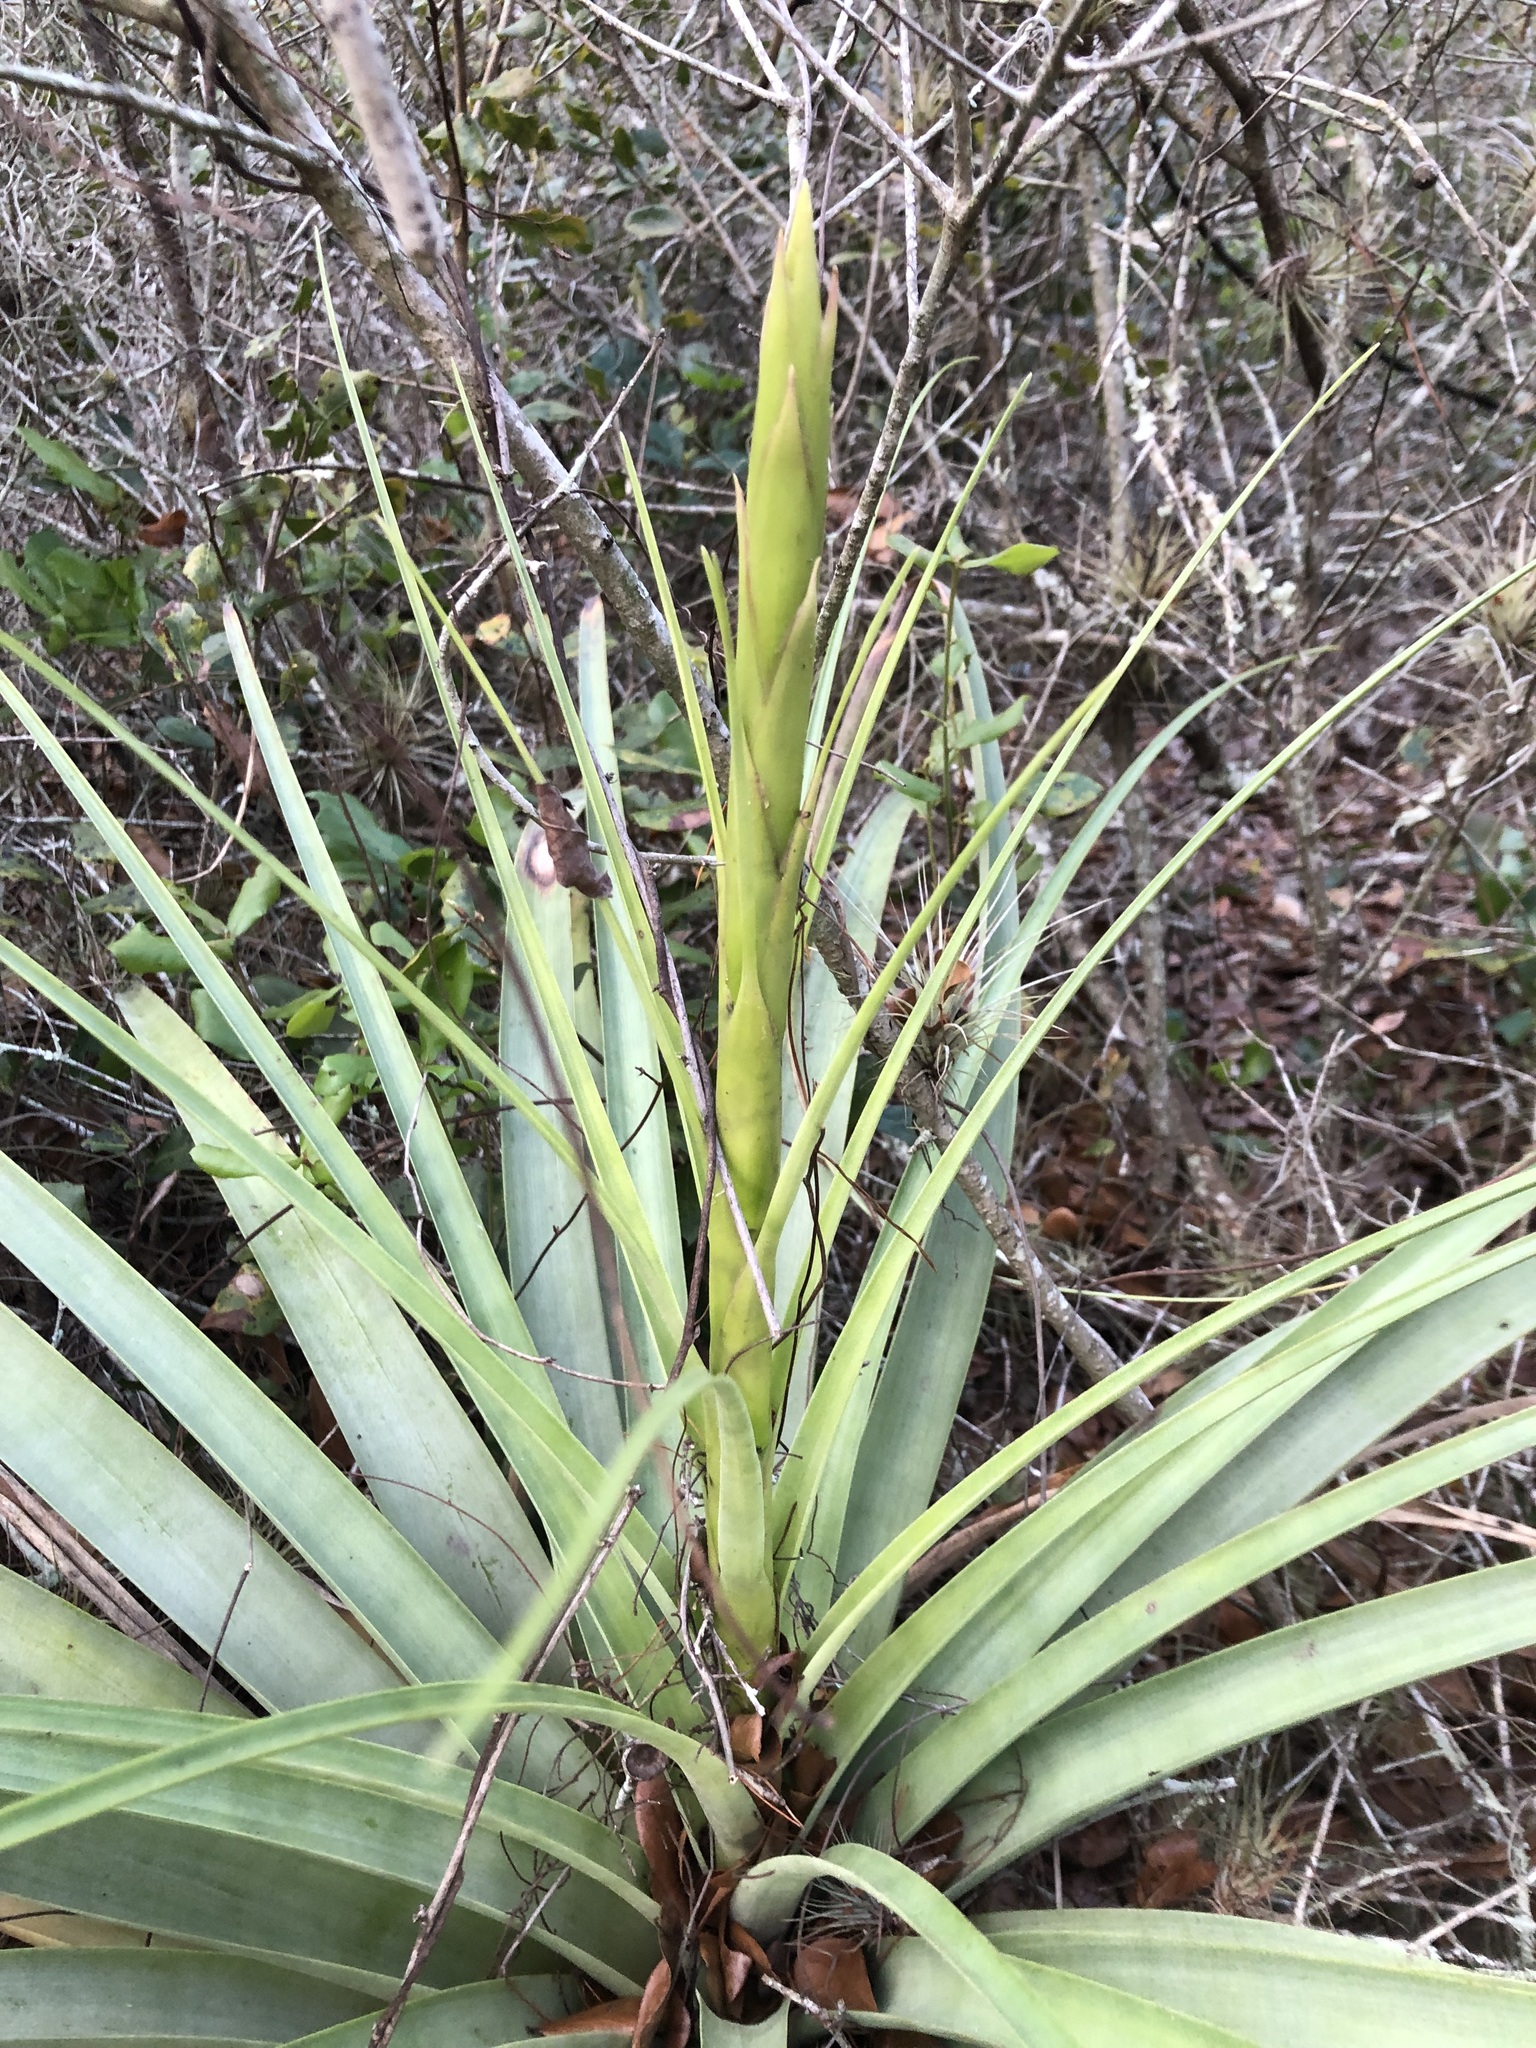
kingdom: Plantae
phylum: Tracheophyta
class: Liliopsida
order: Poales
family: Bromeliaceae
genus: Tillandsia
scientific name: Tillandsia utriculata
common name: Wild pine
